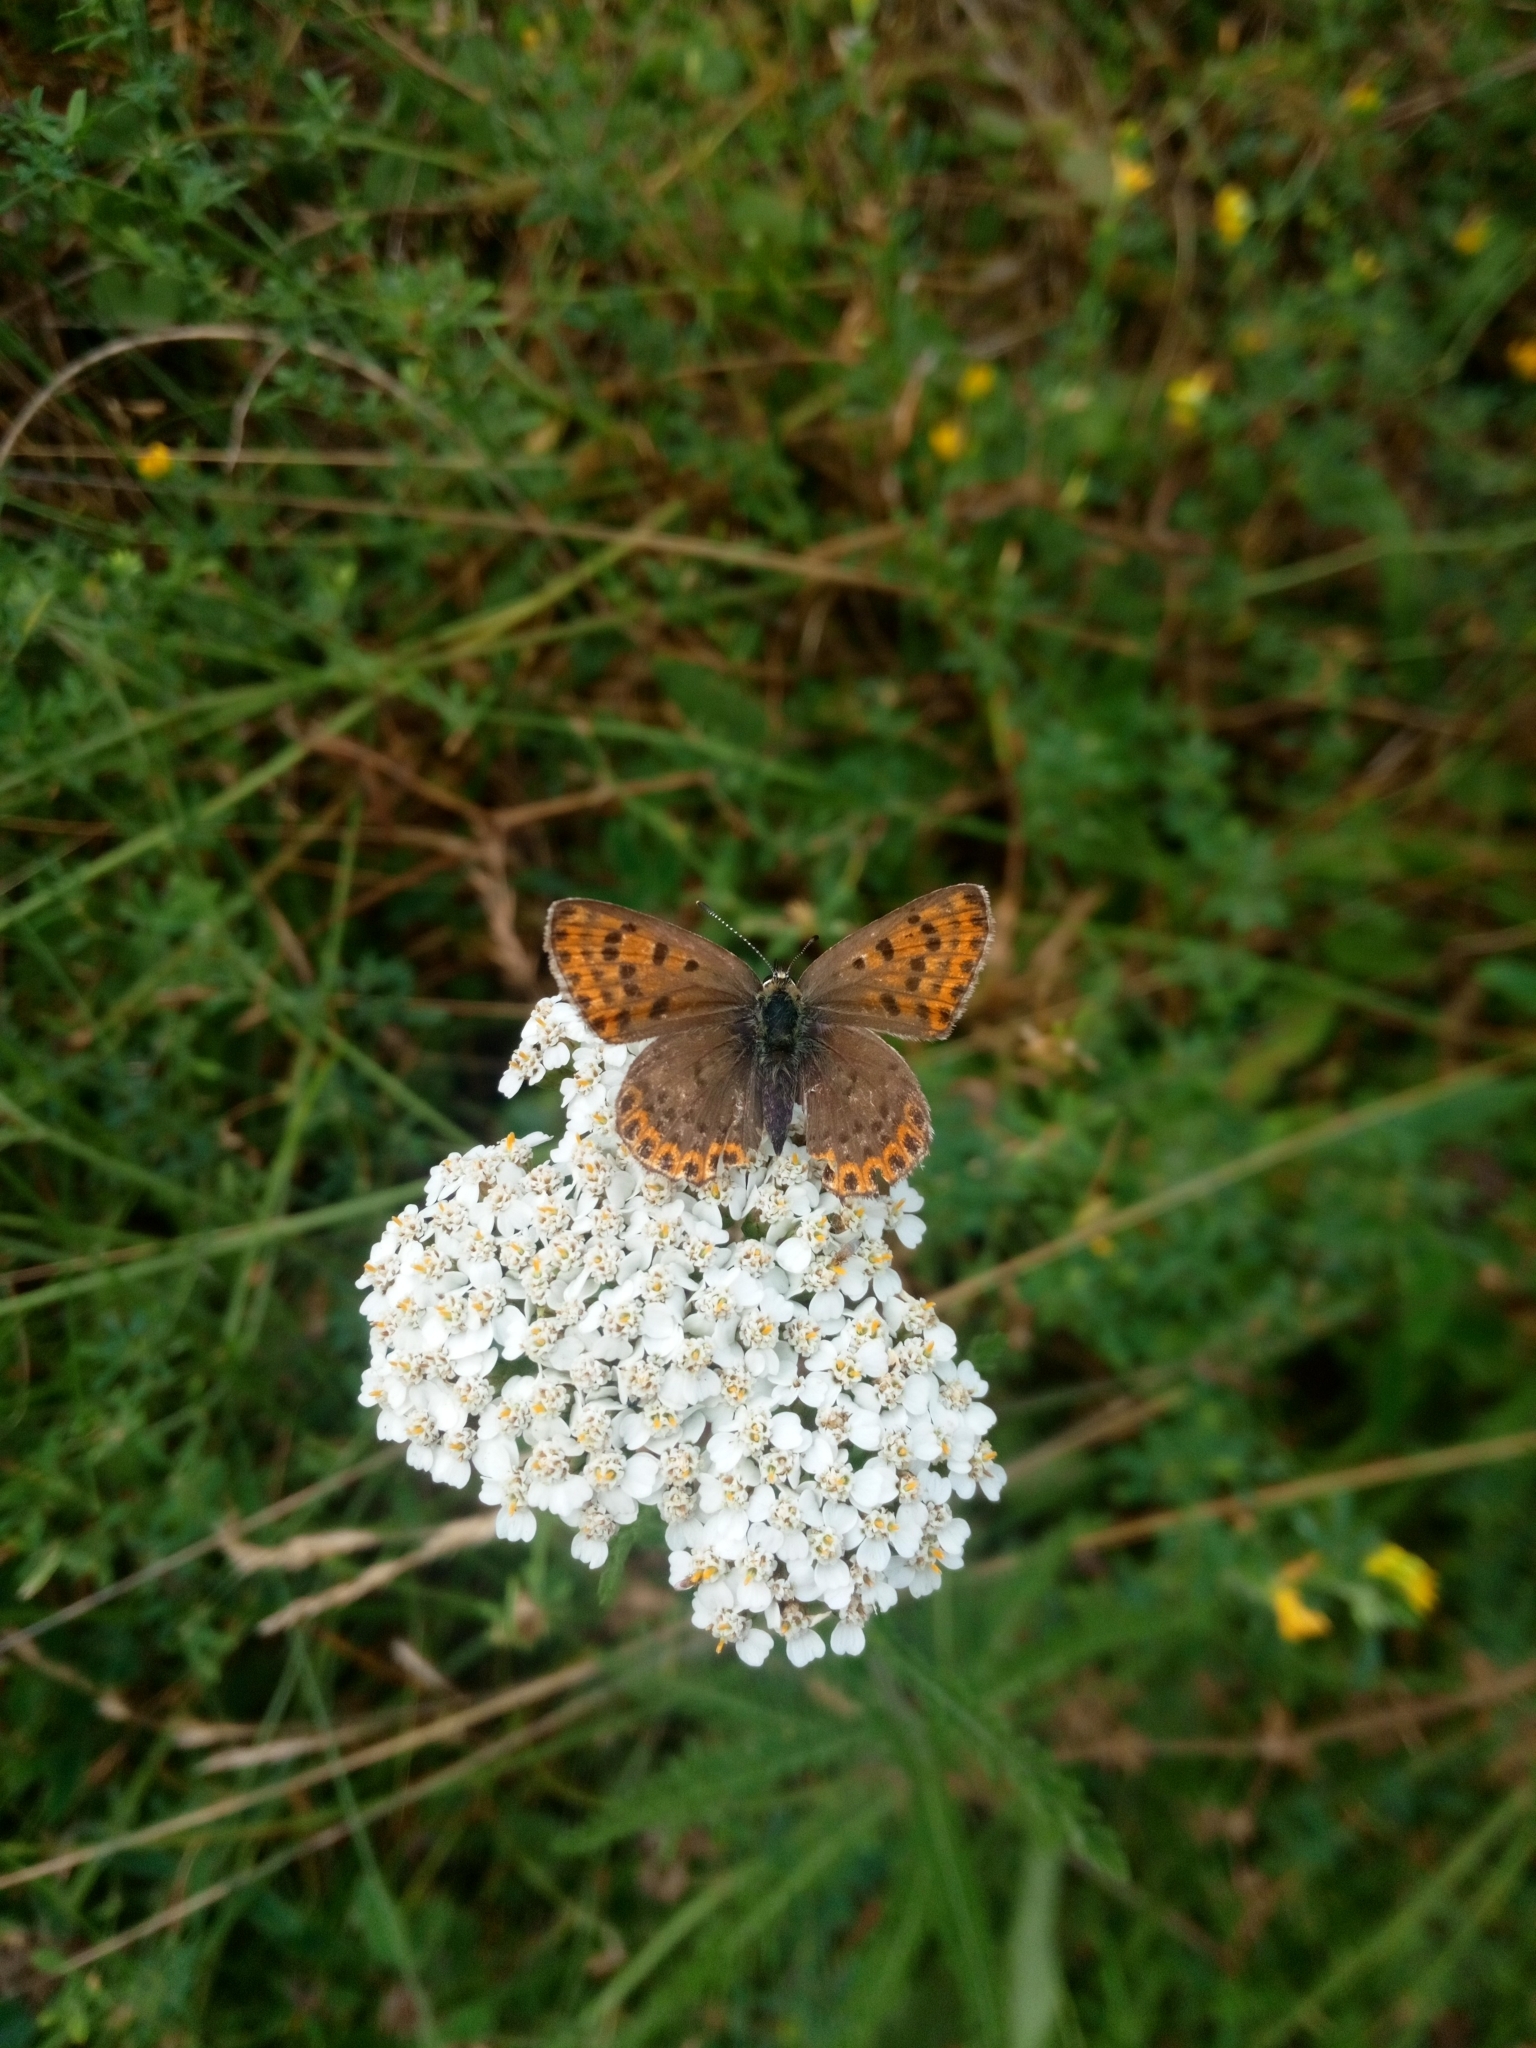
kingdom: Animalia
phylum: Arthropoda
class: Insecta
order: Lepidoptera
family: Lycaenidae
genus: Loweia
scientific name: Loweia tityrus
